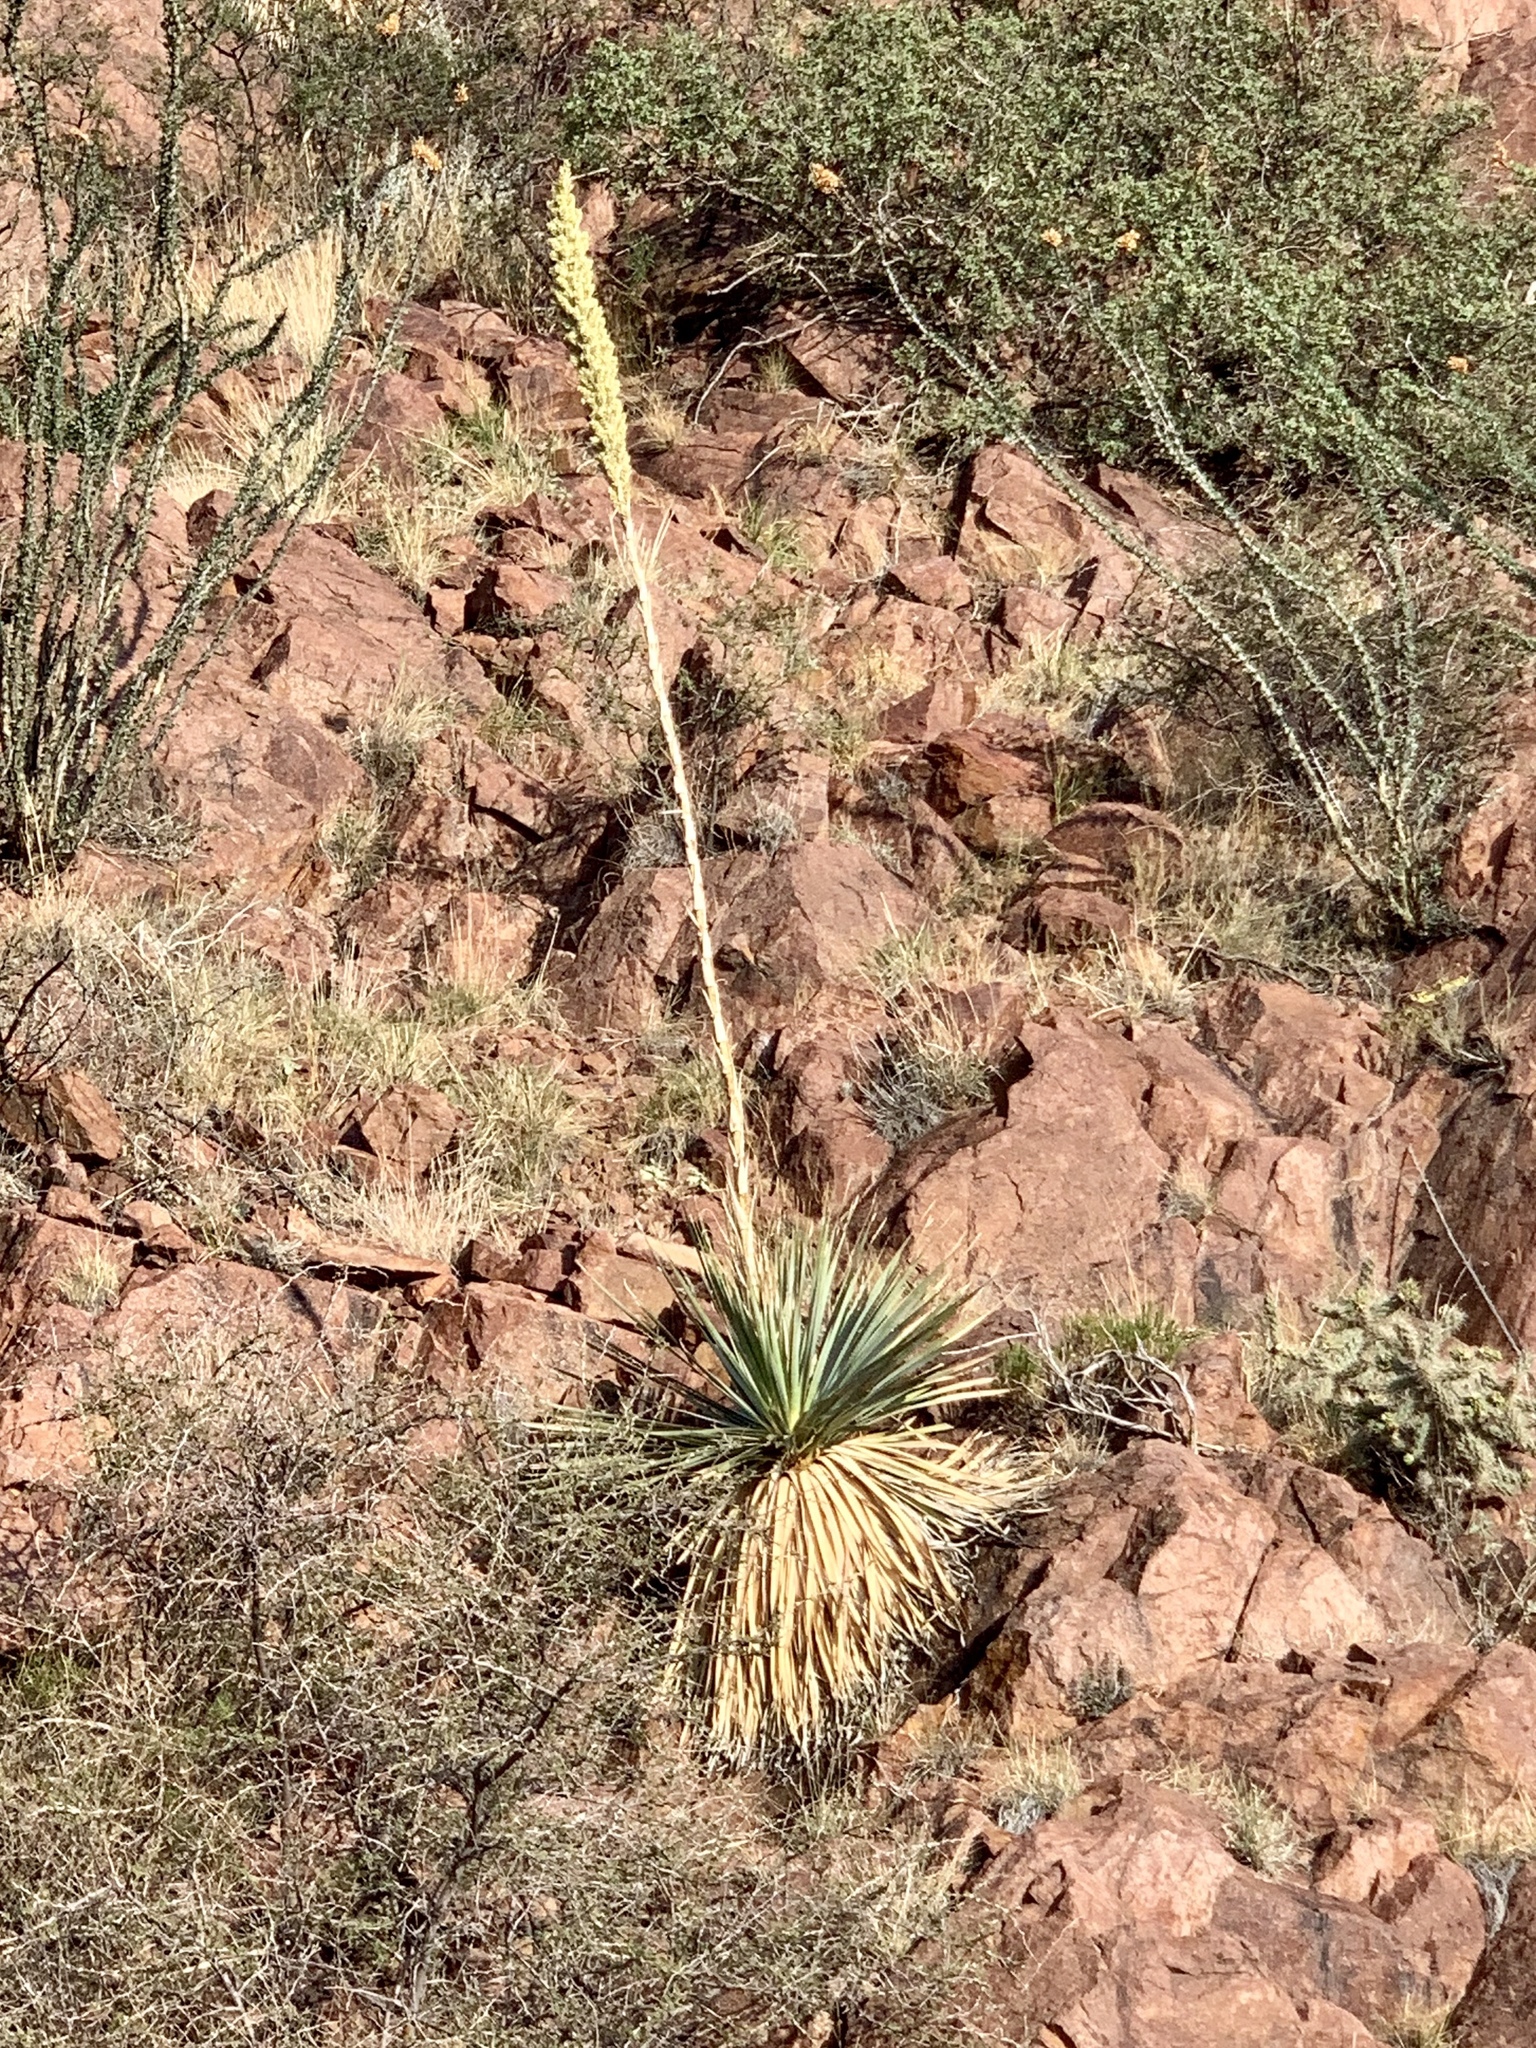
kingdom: Plantae
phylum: Tracheophyta
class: Liliopsida
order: Asparagales
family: Asparagaceae
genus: Dasylirion
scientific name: Dasylirion wheeleri
